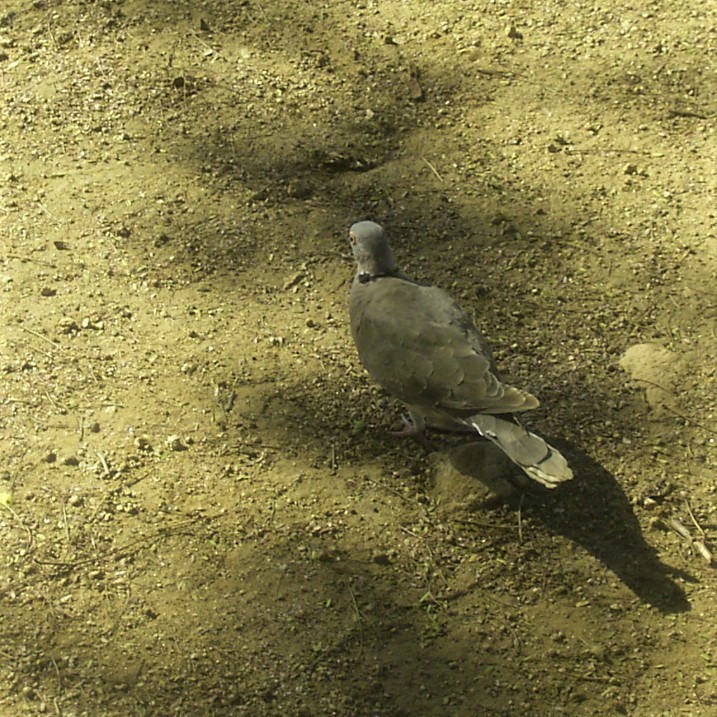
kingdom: Animalia
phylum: Chordata
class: Aves
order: Columbiformes
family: Columbidae
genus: Streptopelia
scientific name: Streptopelia decipiens
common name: Mourning collared dove
